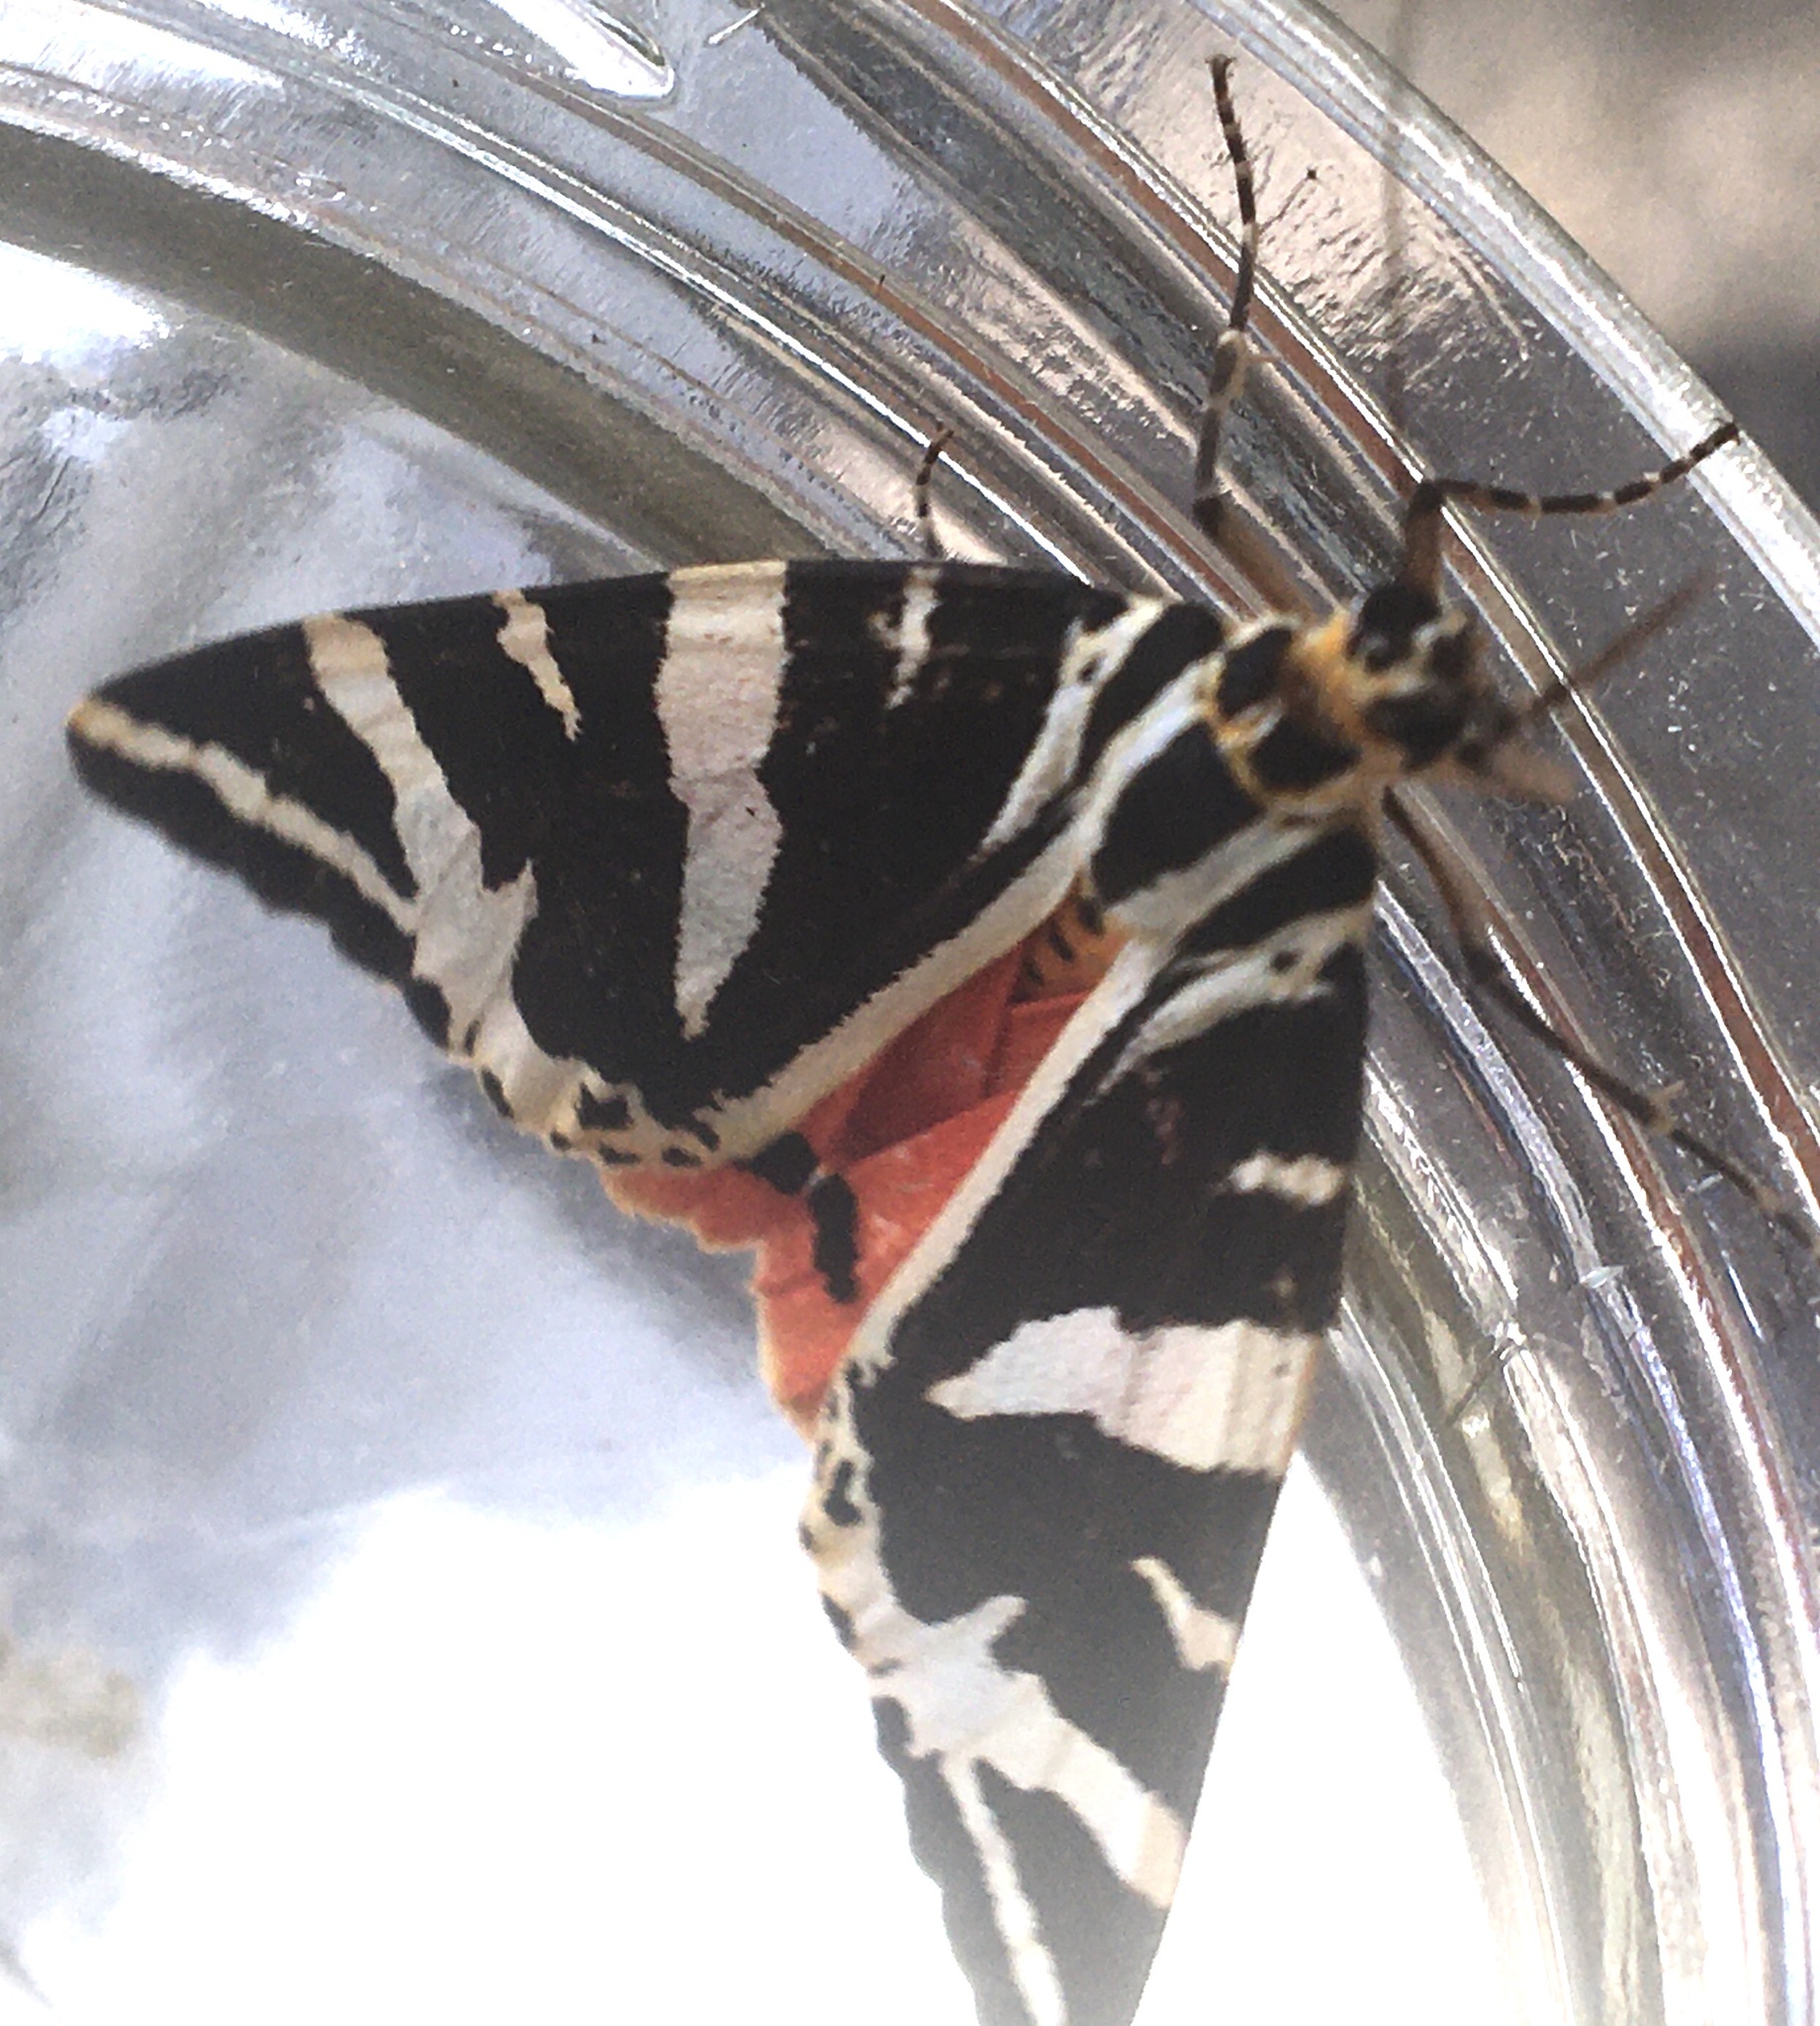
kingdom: Animalia
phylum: Arthropoda
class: Insecta
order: Lepidoptera
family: Erebidae
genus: Euplagia
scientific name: Euplagia quadripunctaria
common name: Jersey tiger
